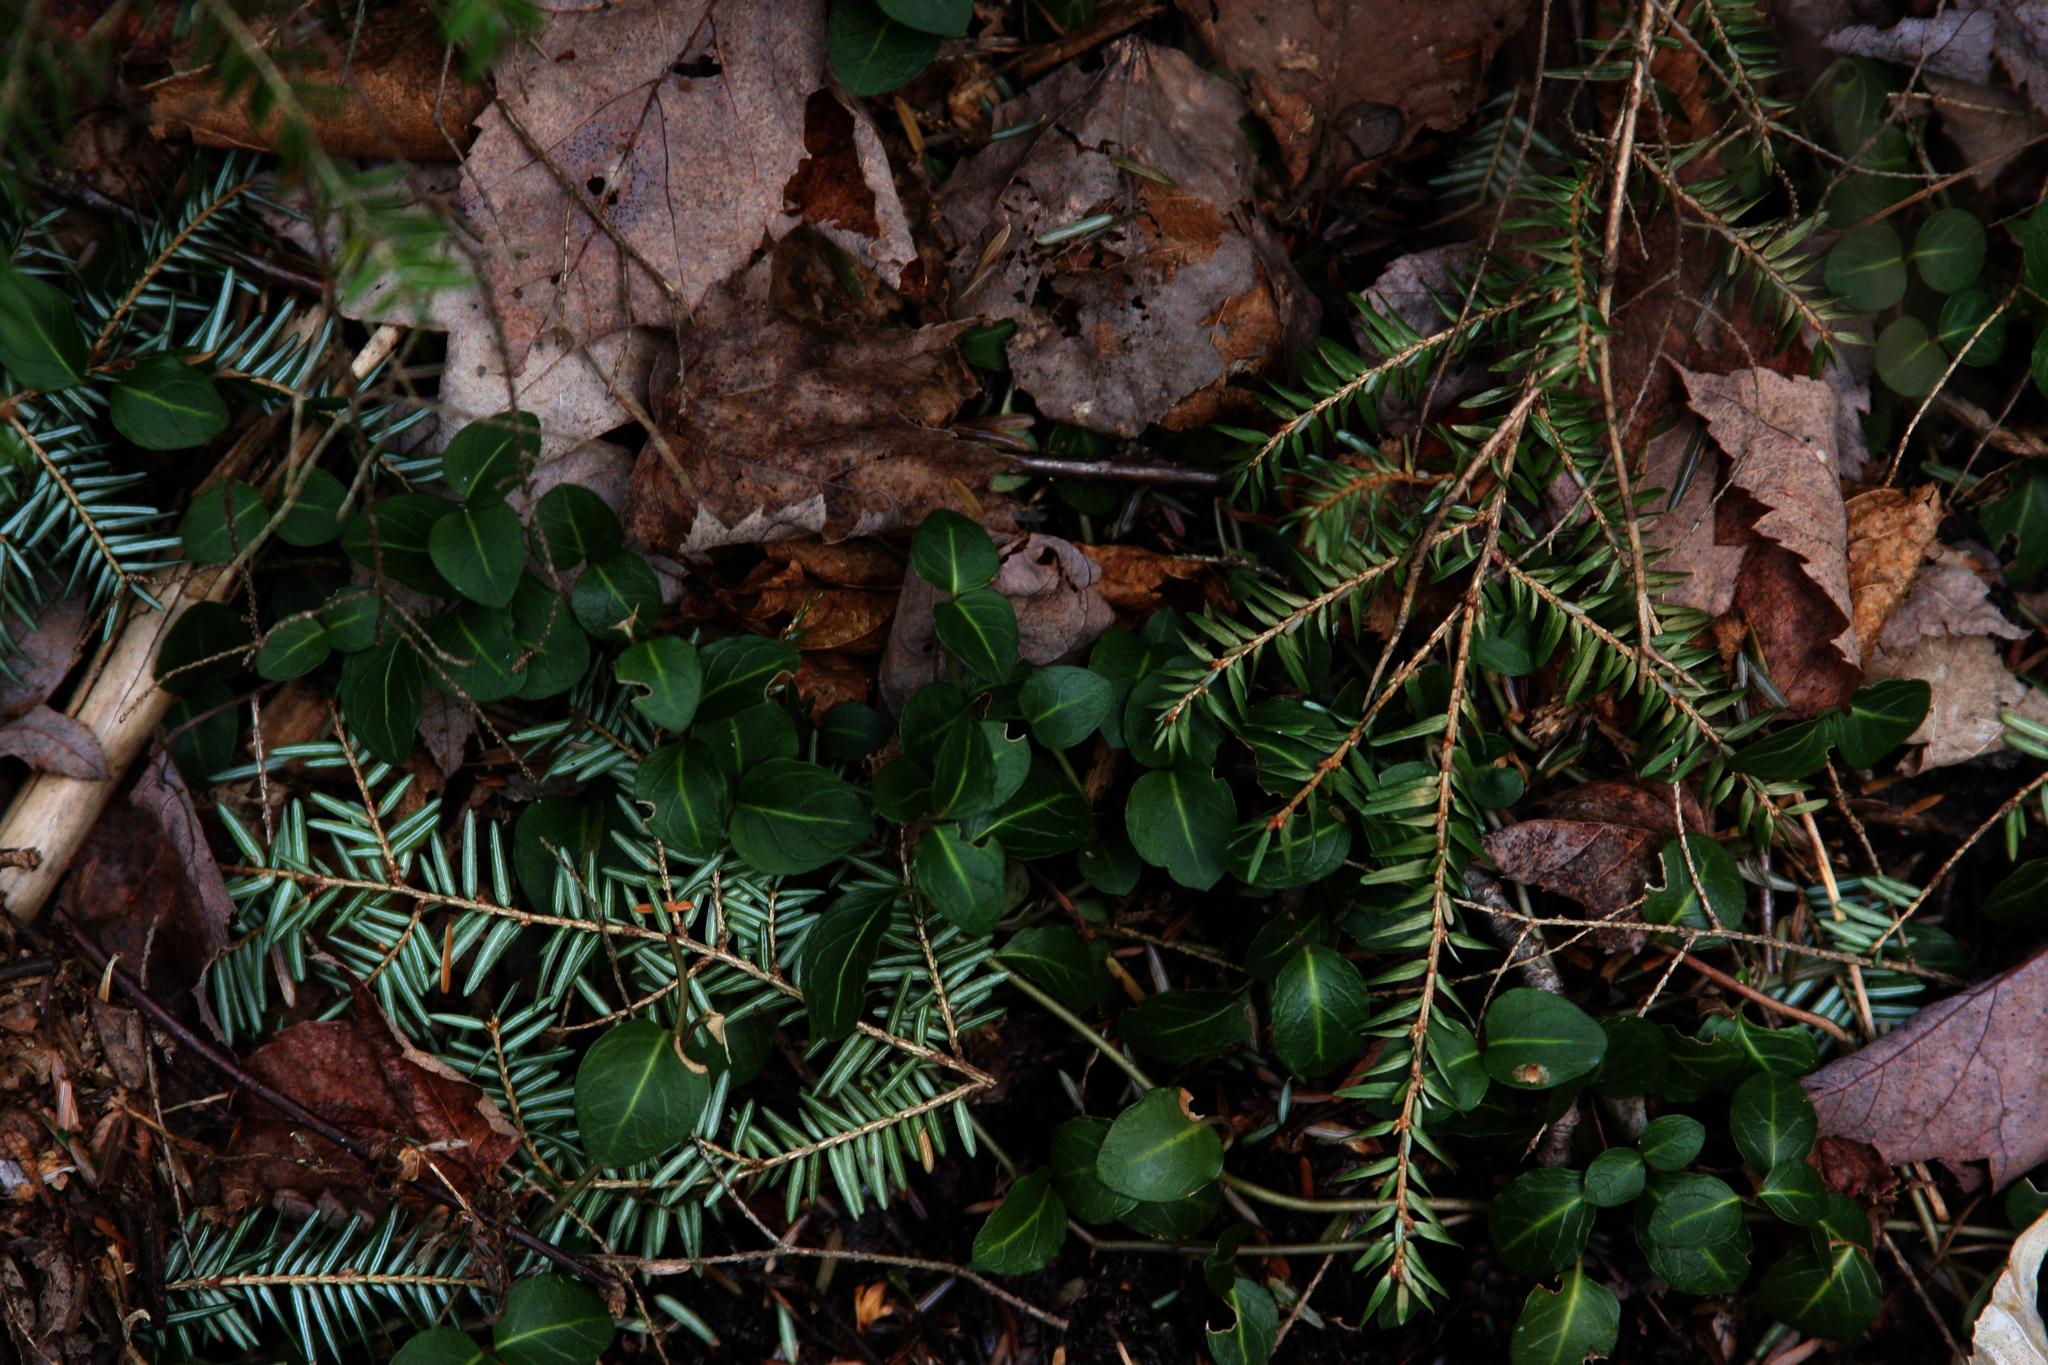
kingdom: Plantae
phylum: Tracheophyta
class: Magnoliopsida
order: Gentianales
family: Rubiaceae
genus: Mitchella
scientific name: Mitchella repens
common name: Partridge-berry
